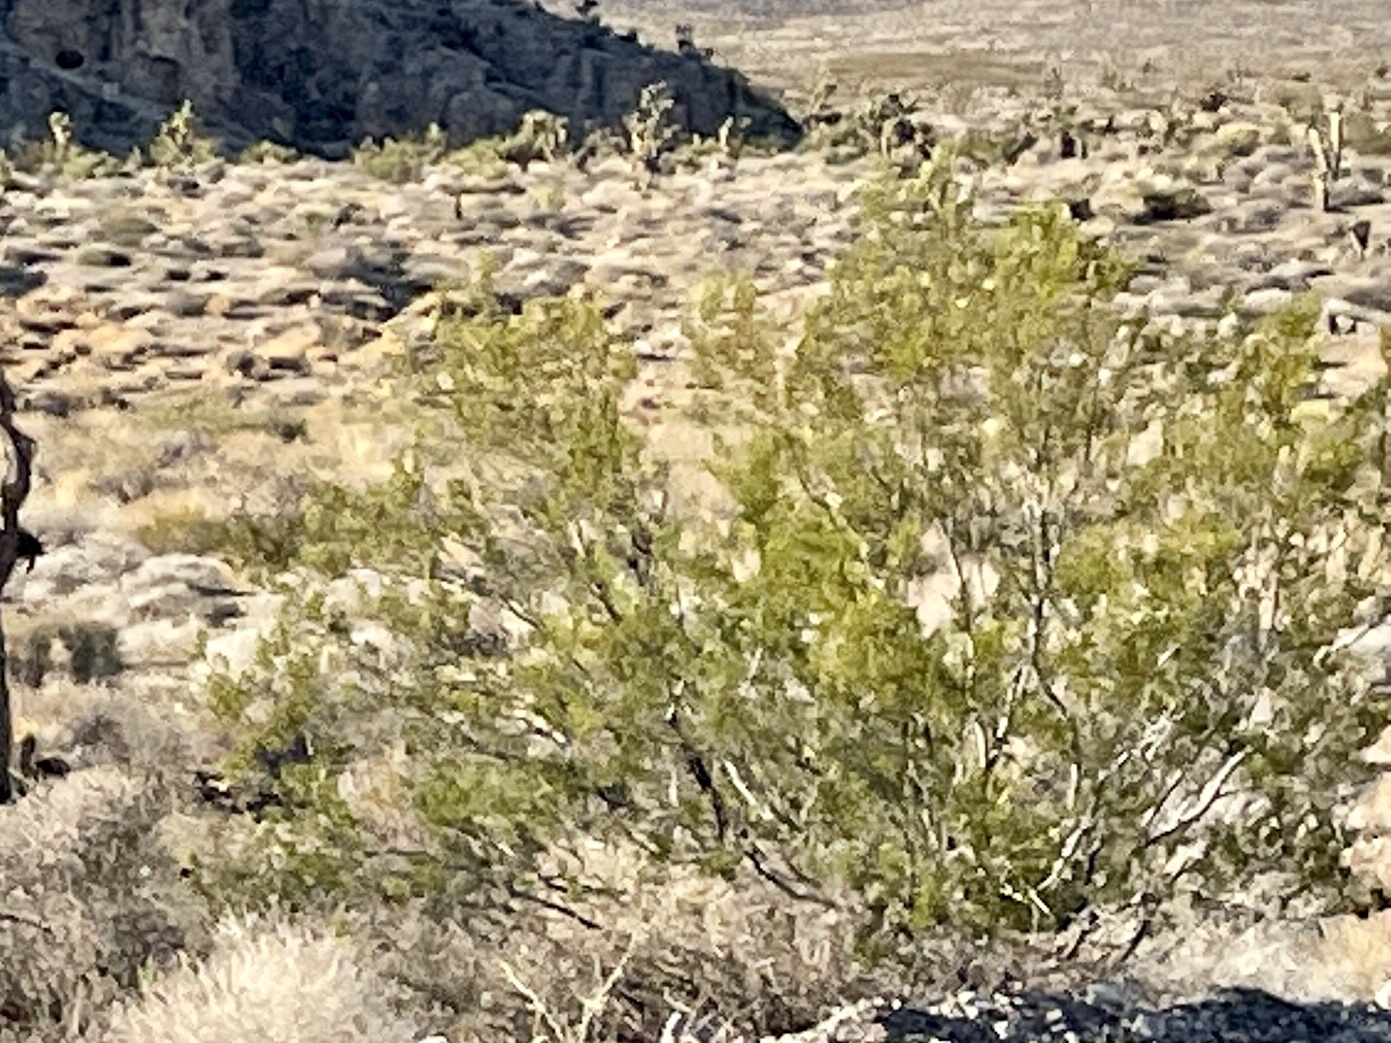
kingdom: Plantae
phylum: Tracheophyta
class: Magnoliopsida
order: Zygophyllales
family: Zygophyllaceae
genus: Larrea
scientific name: Larrea tridentata
